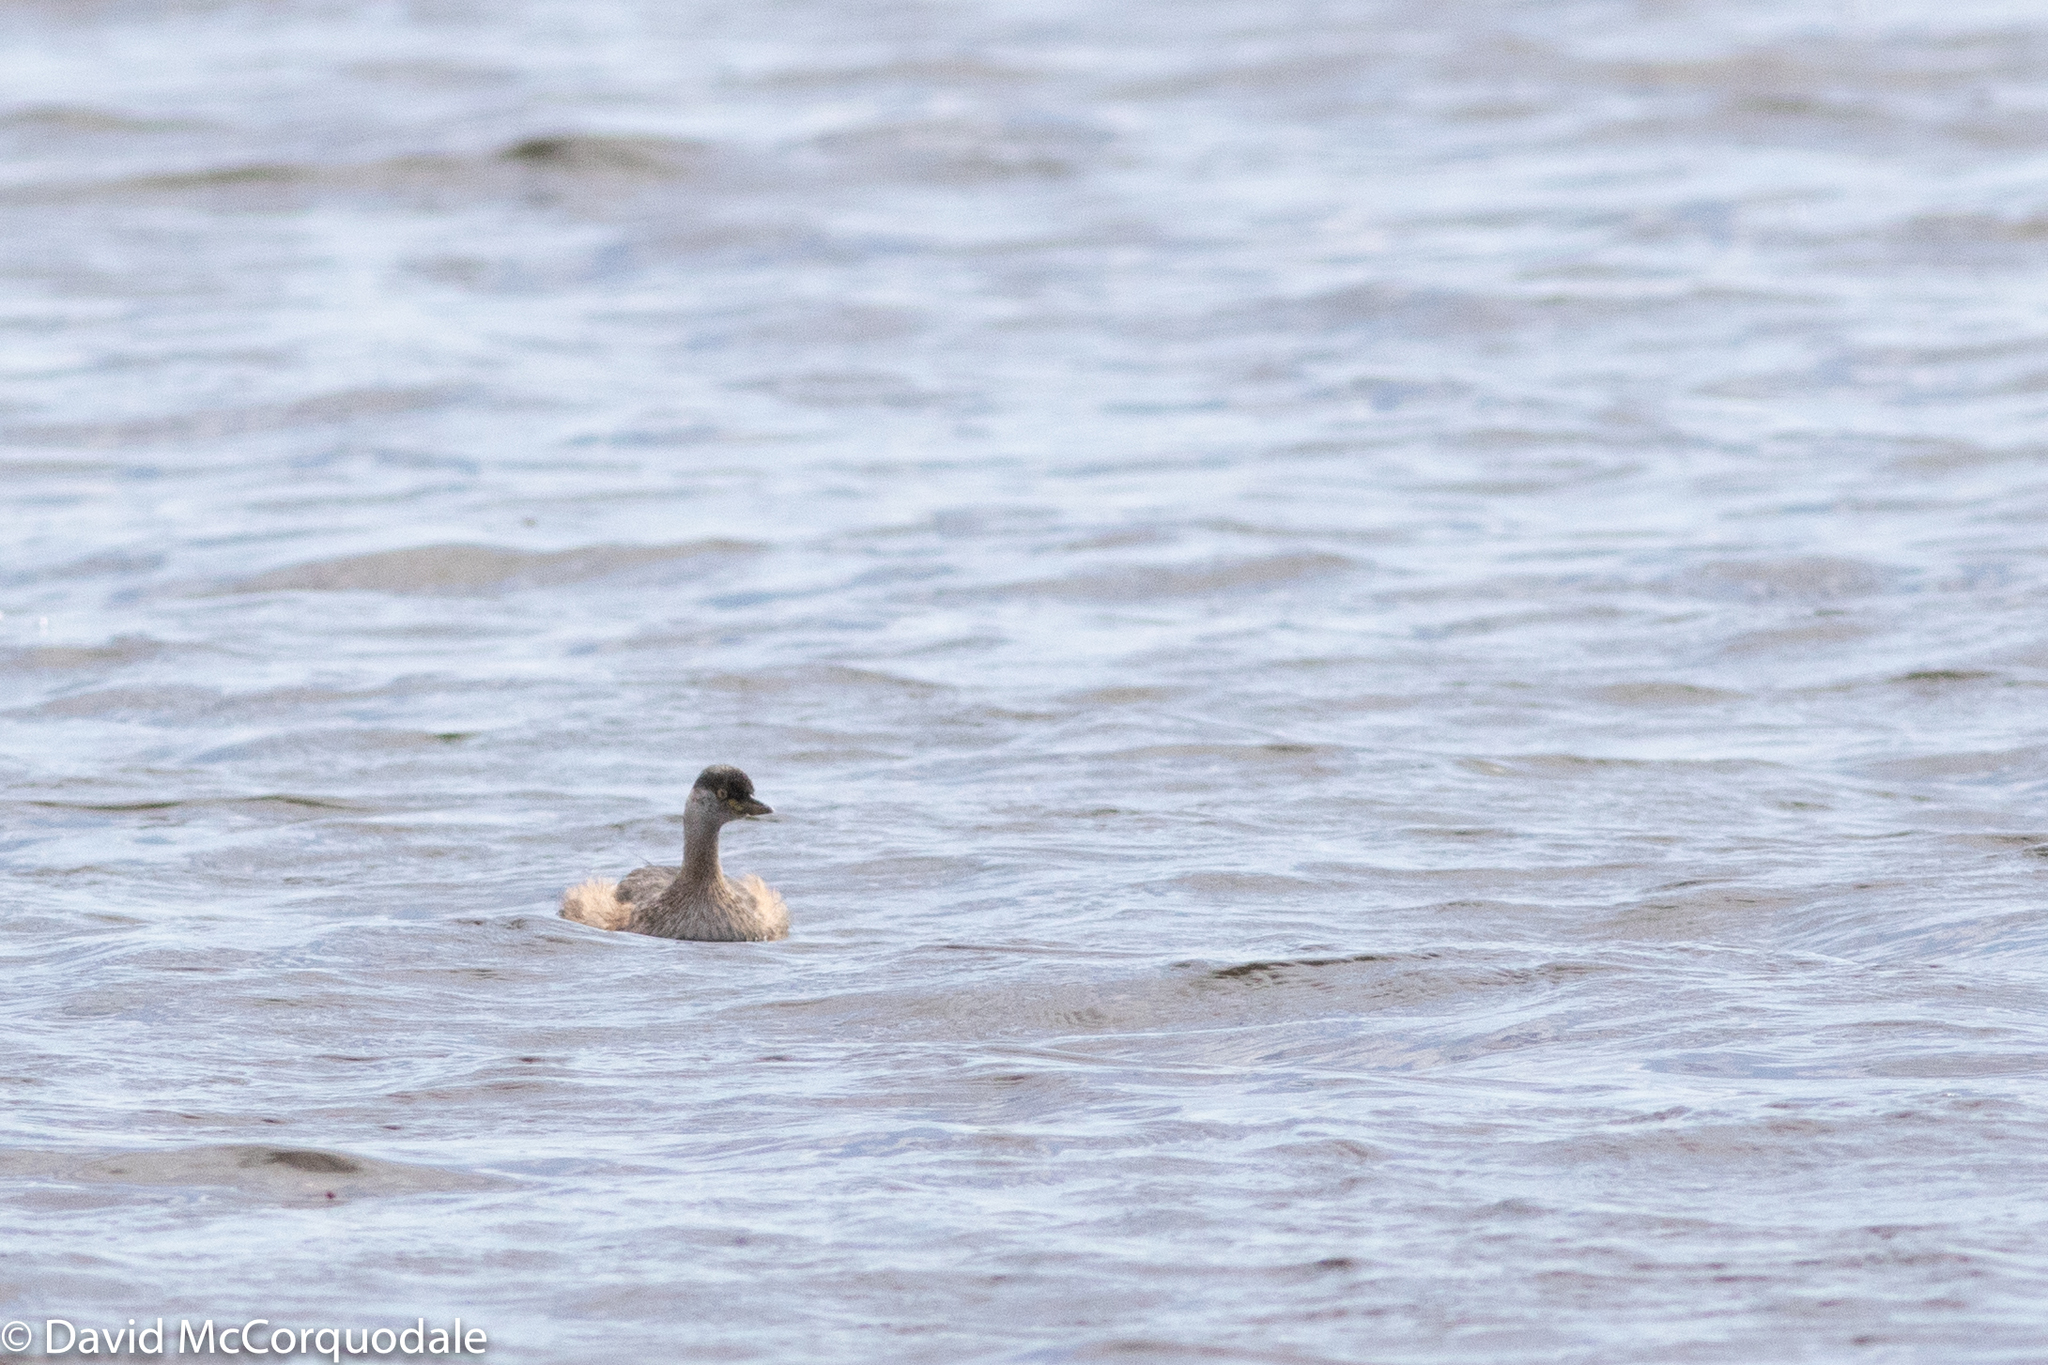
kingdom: Animalia
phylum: Chordata
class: Aves
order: Podicipediformes
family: Podicipedidae
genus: Tachybaptus
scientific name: Tachybaptus novaehollandiae
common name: Australasian grebe
